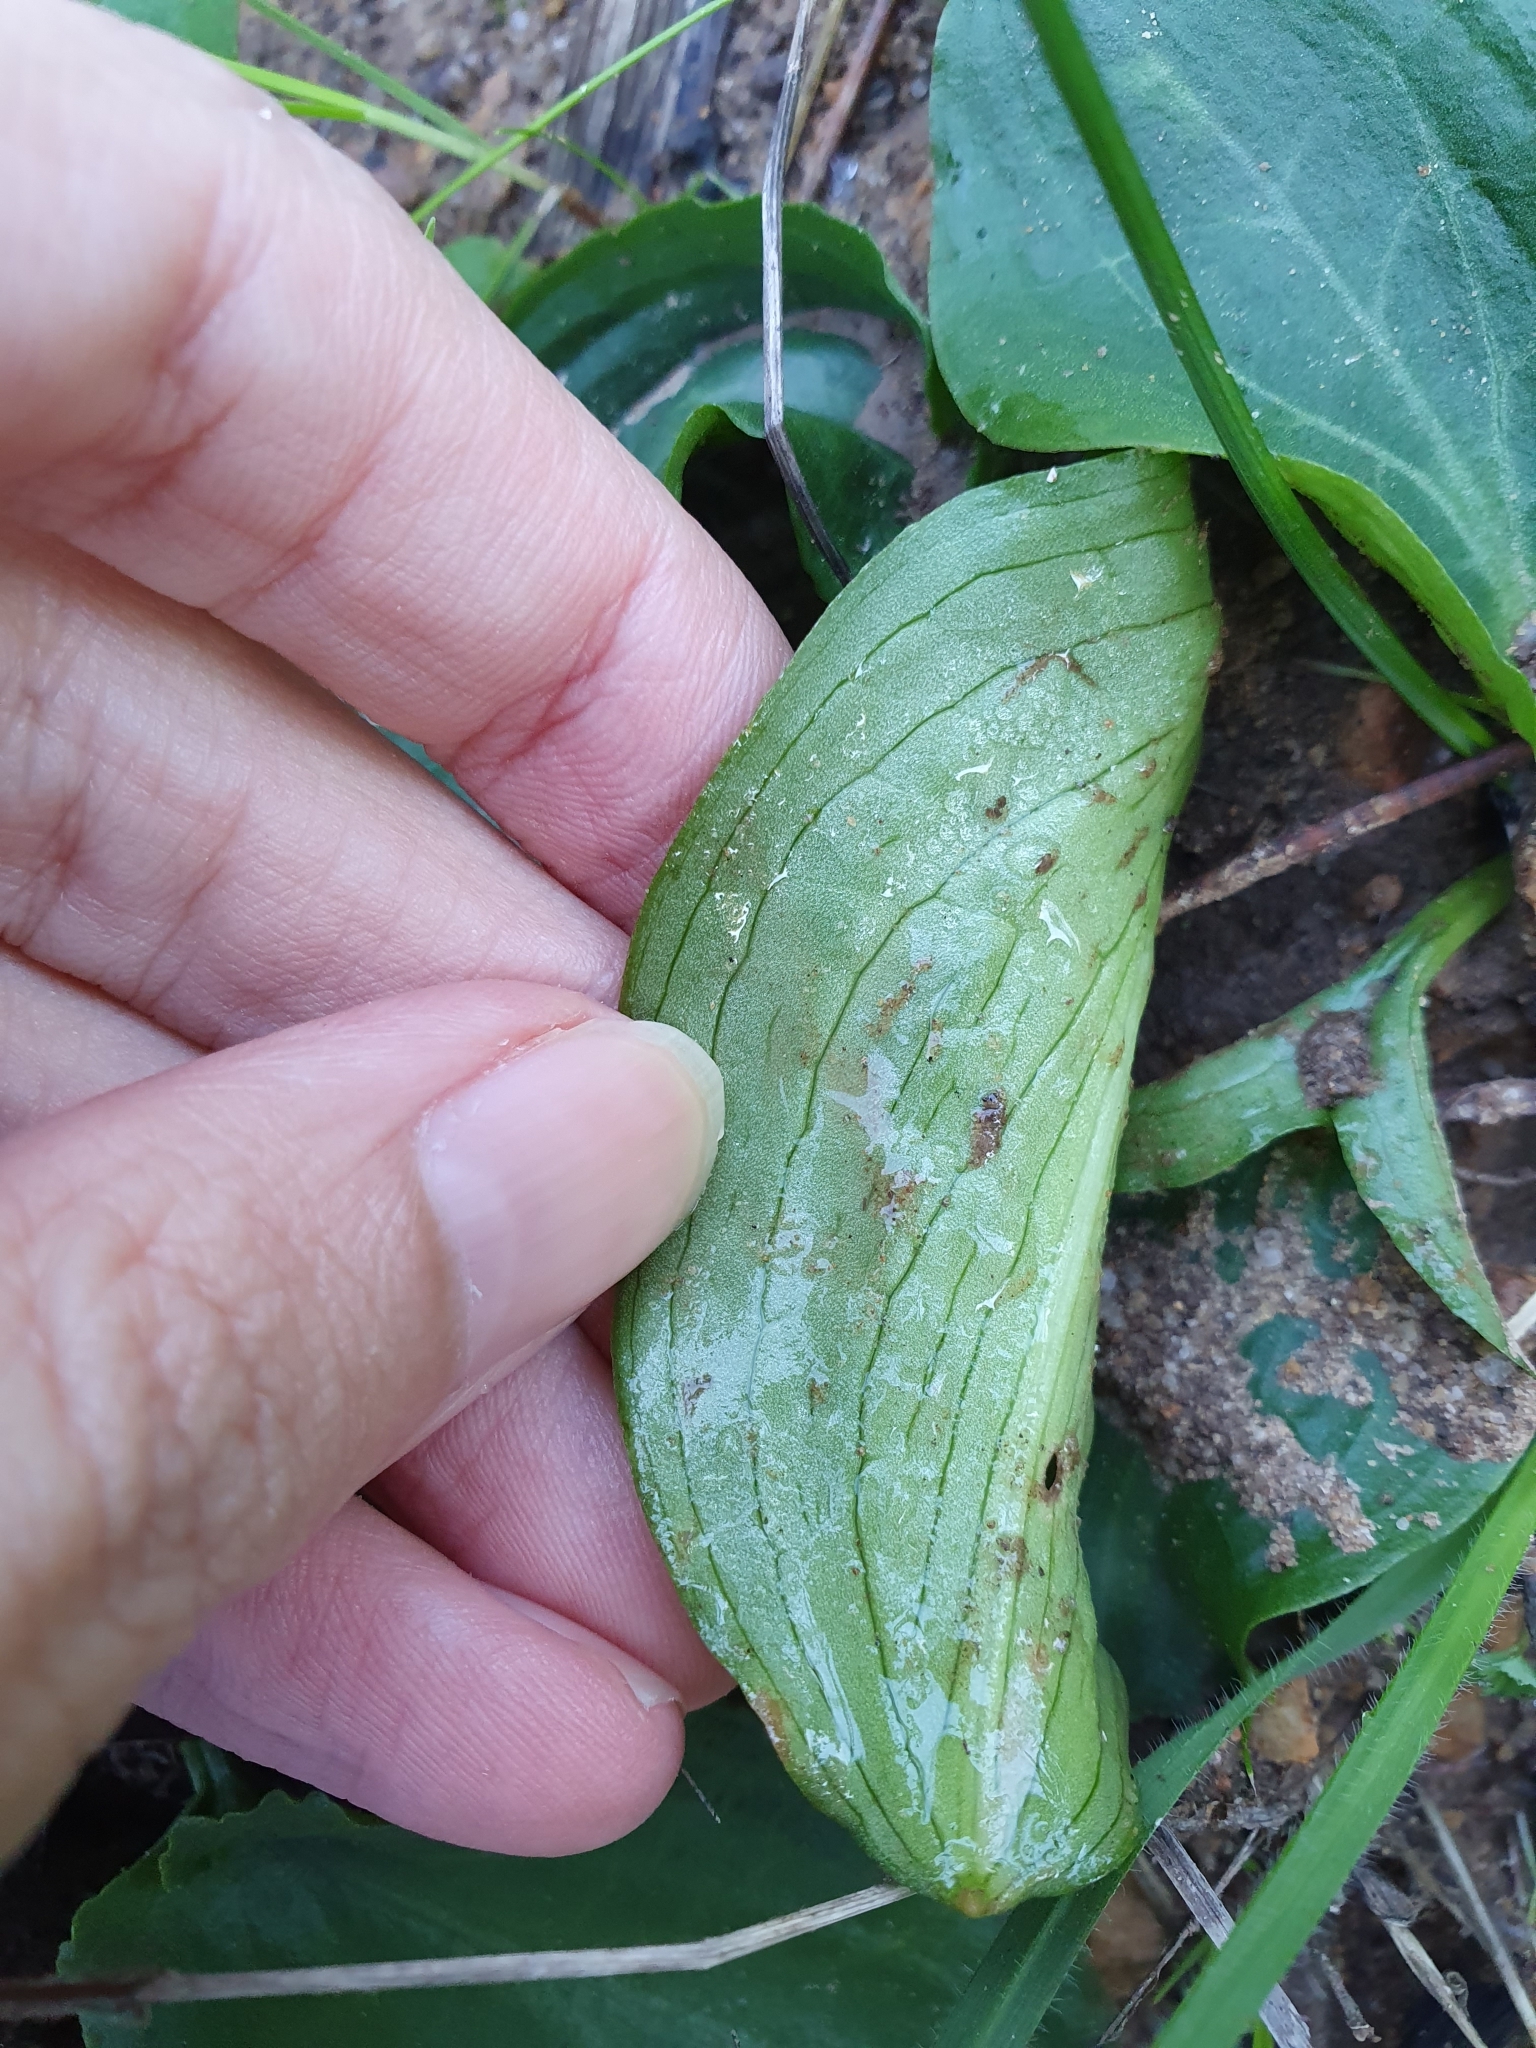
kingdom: Plantae
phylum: Tracheophyta
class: Liliopsida
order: Alismatales
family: Araceae
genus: Ambrosina
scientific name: Ambrosina bassii
